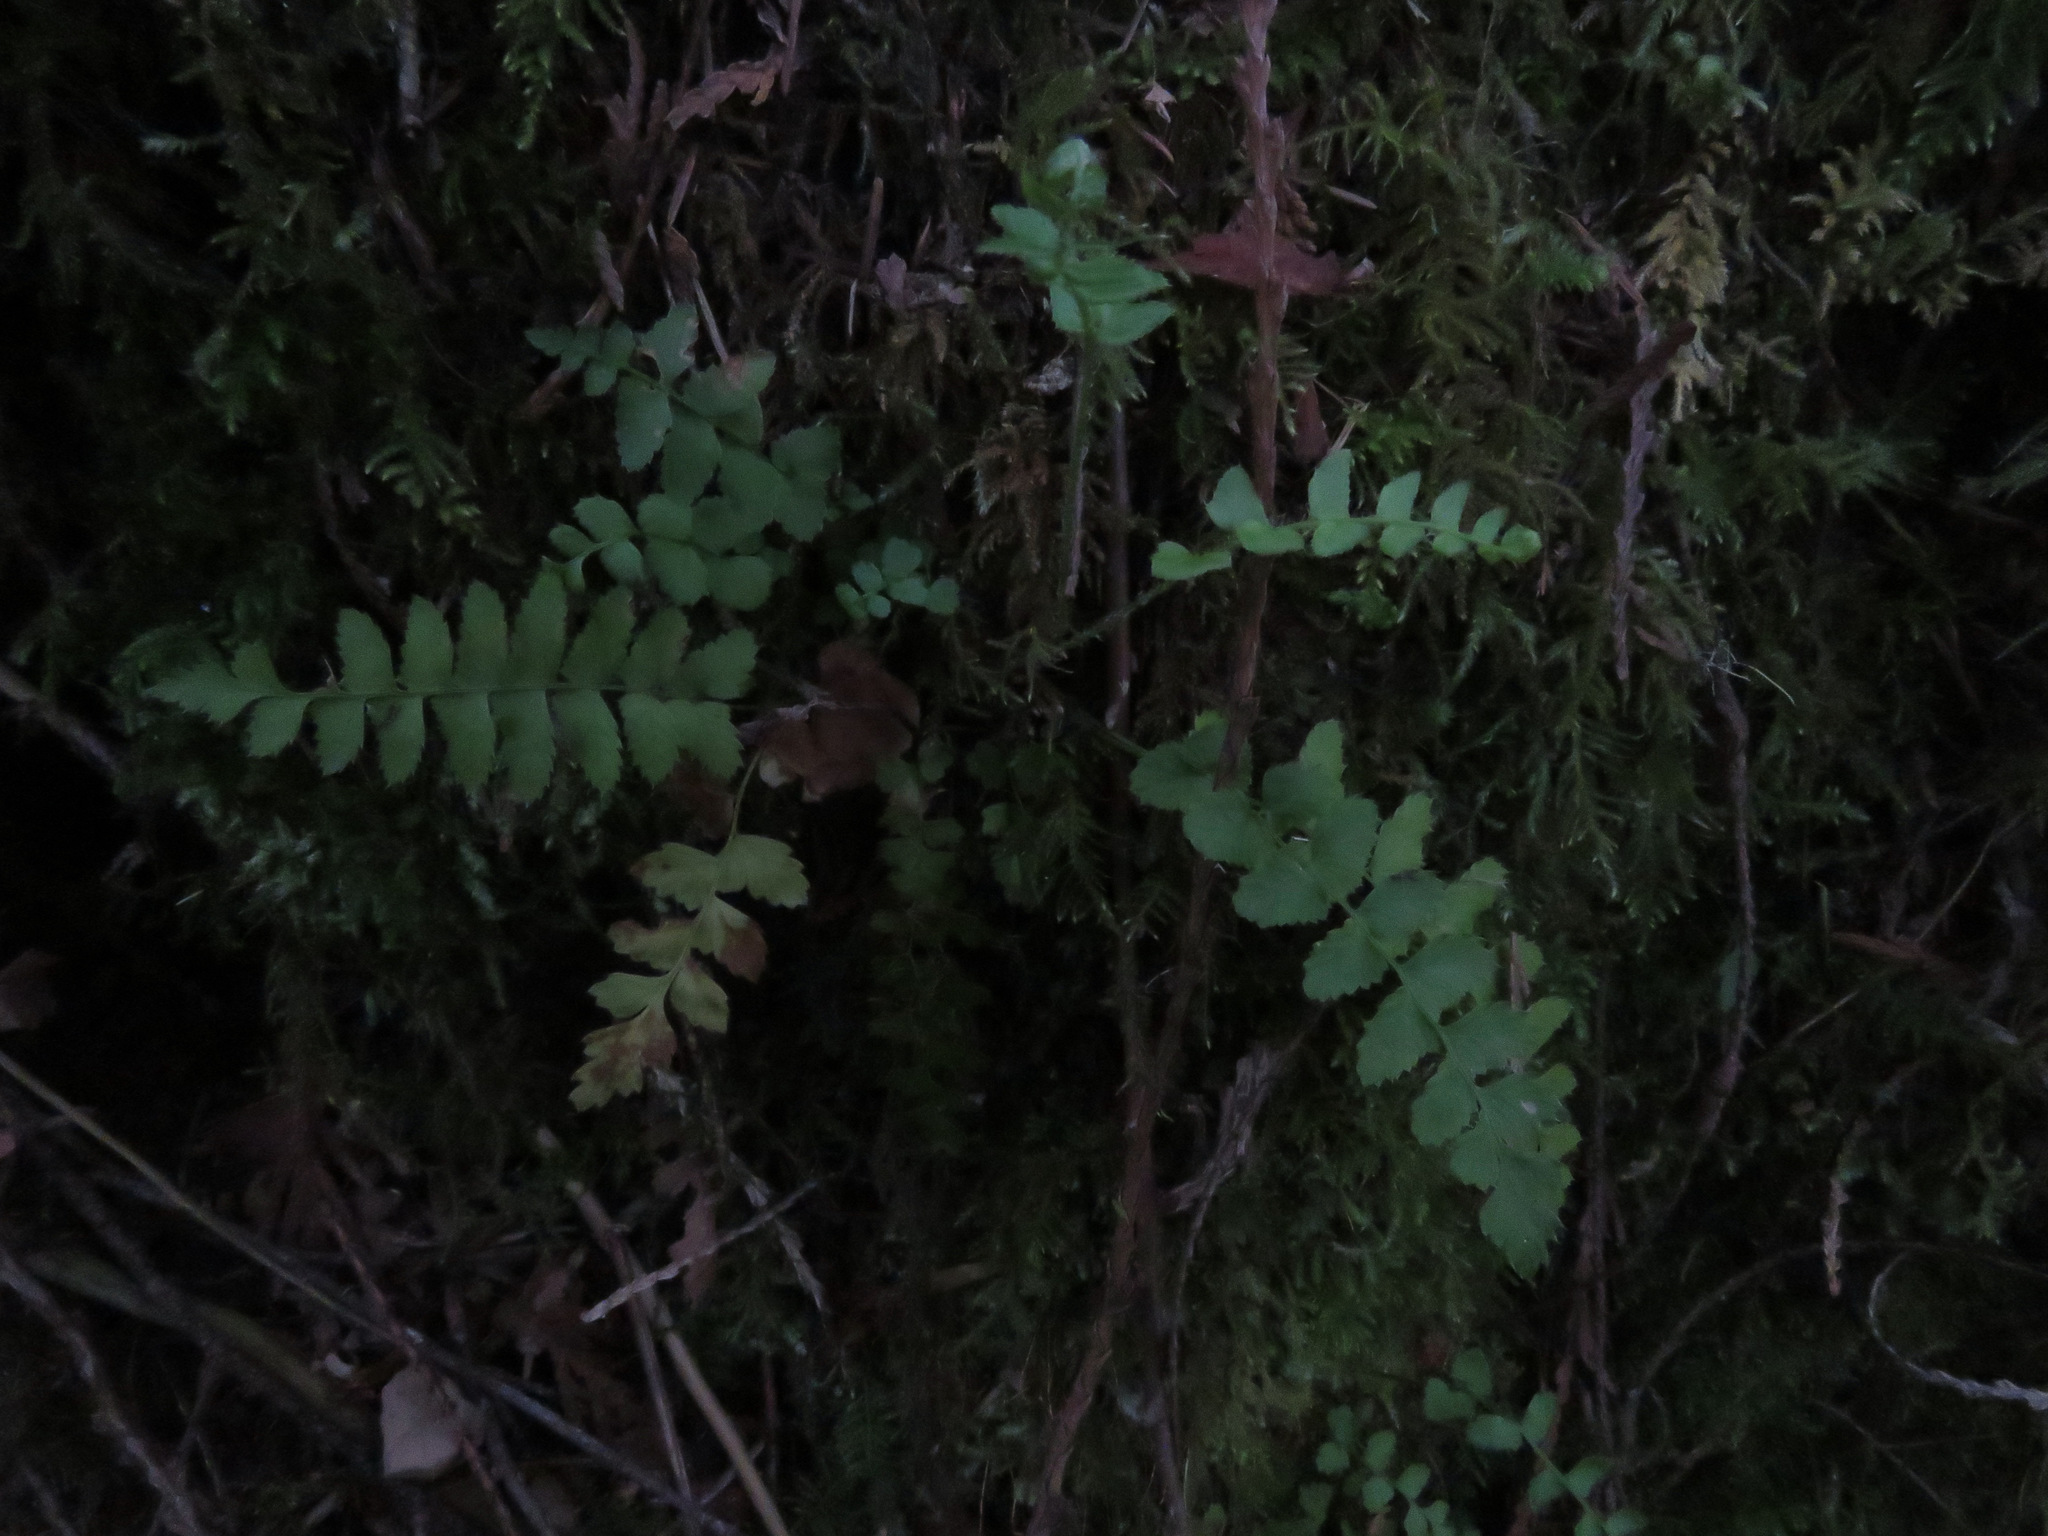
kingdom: Plantae
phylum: Tracheophyta
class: Polypodiopsida
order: Polypodiales
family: Dryopteridaceae
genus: Polystichum
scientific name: Polystichum munitum
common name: Western sword-fern
